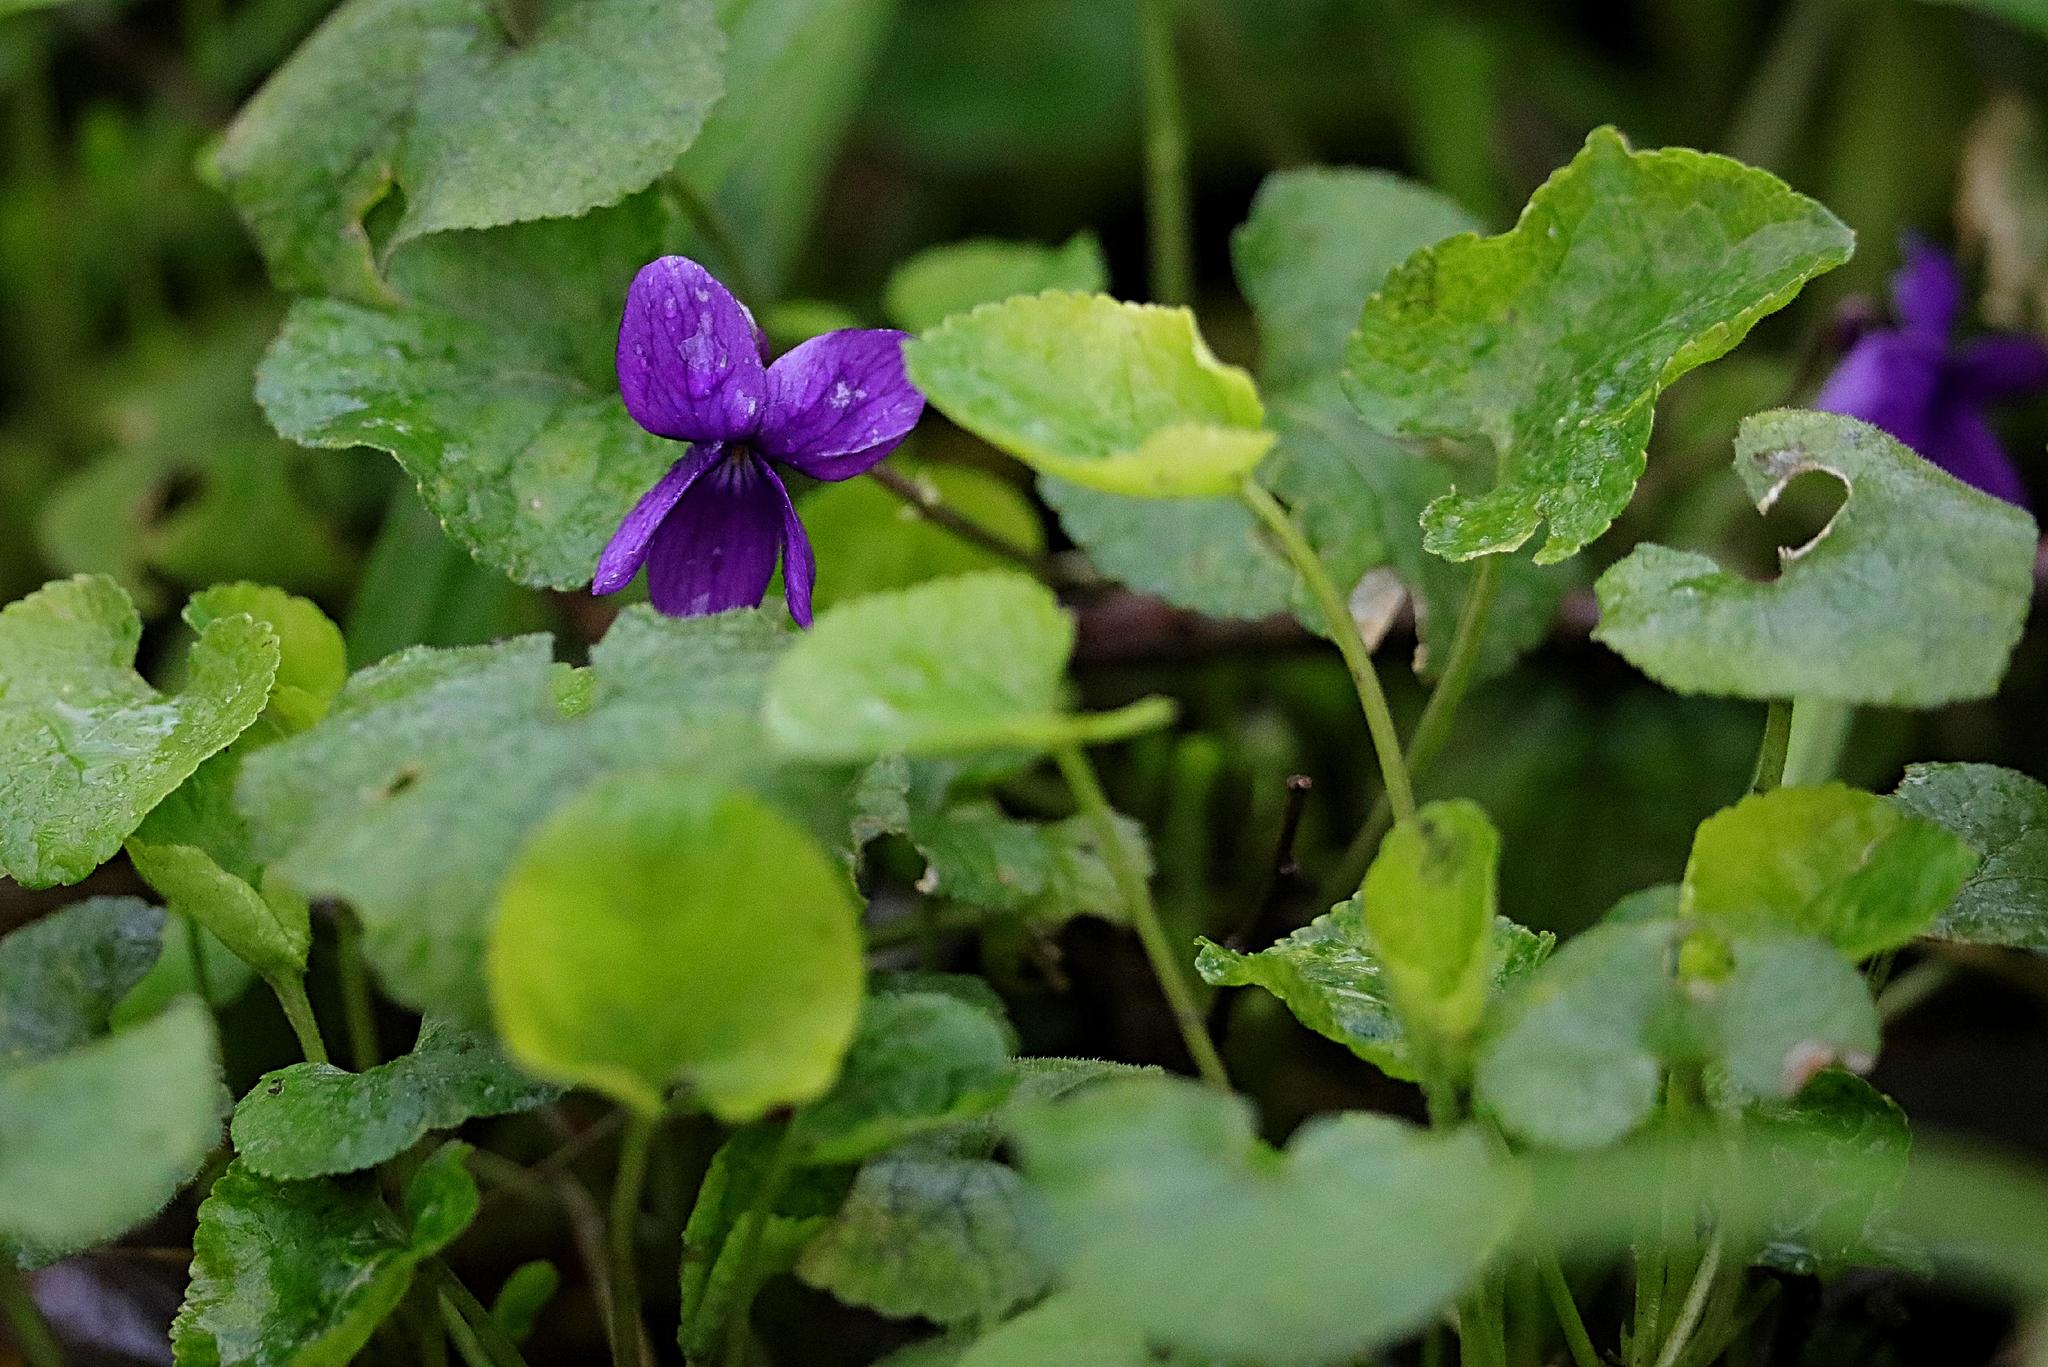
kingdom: Plantae
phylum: Tracheophyta
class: Magnoliopsida
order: Malpighiales
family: Violaceae
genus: Viola
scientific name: Viola odorata
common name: Sweet violet
